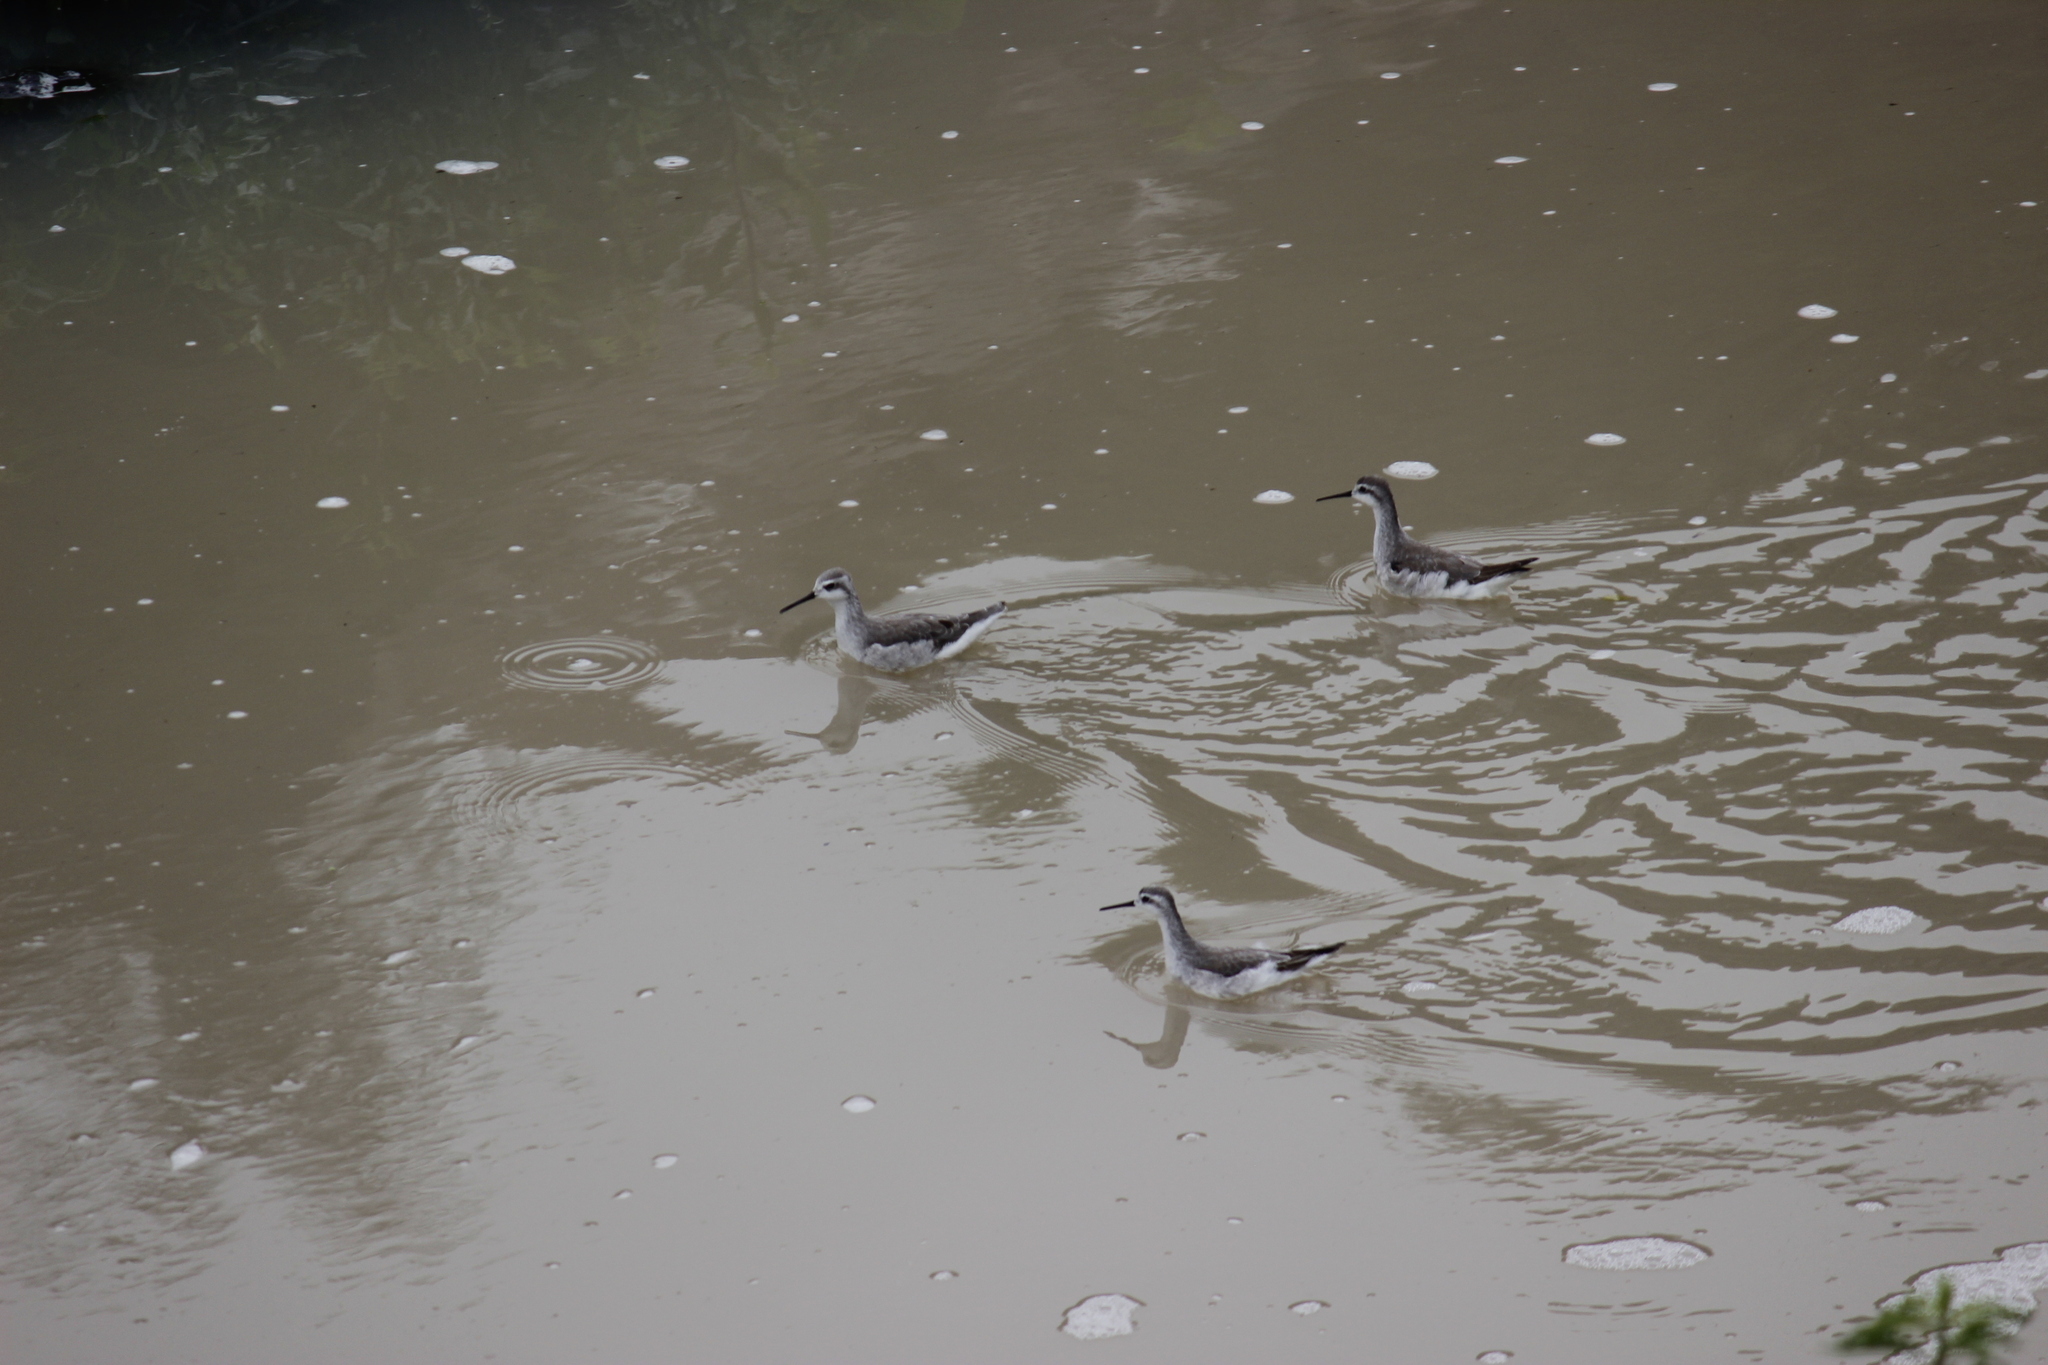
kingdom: Animalia
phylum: Chordata
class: Aves
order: Charadriiformes
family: Scolopacidae
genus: Phalaropus
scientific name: Phalaropus tricolor
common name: Wilson's phalarope
